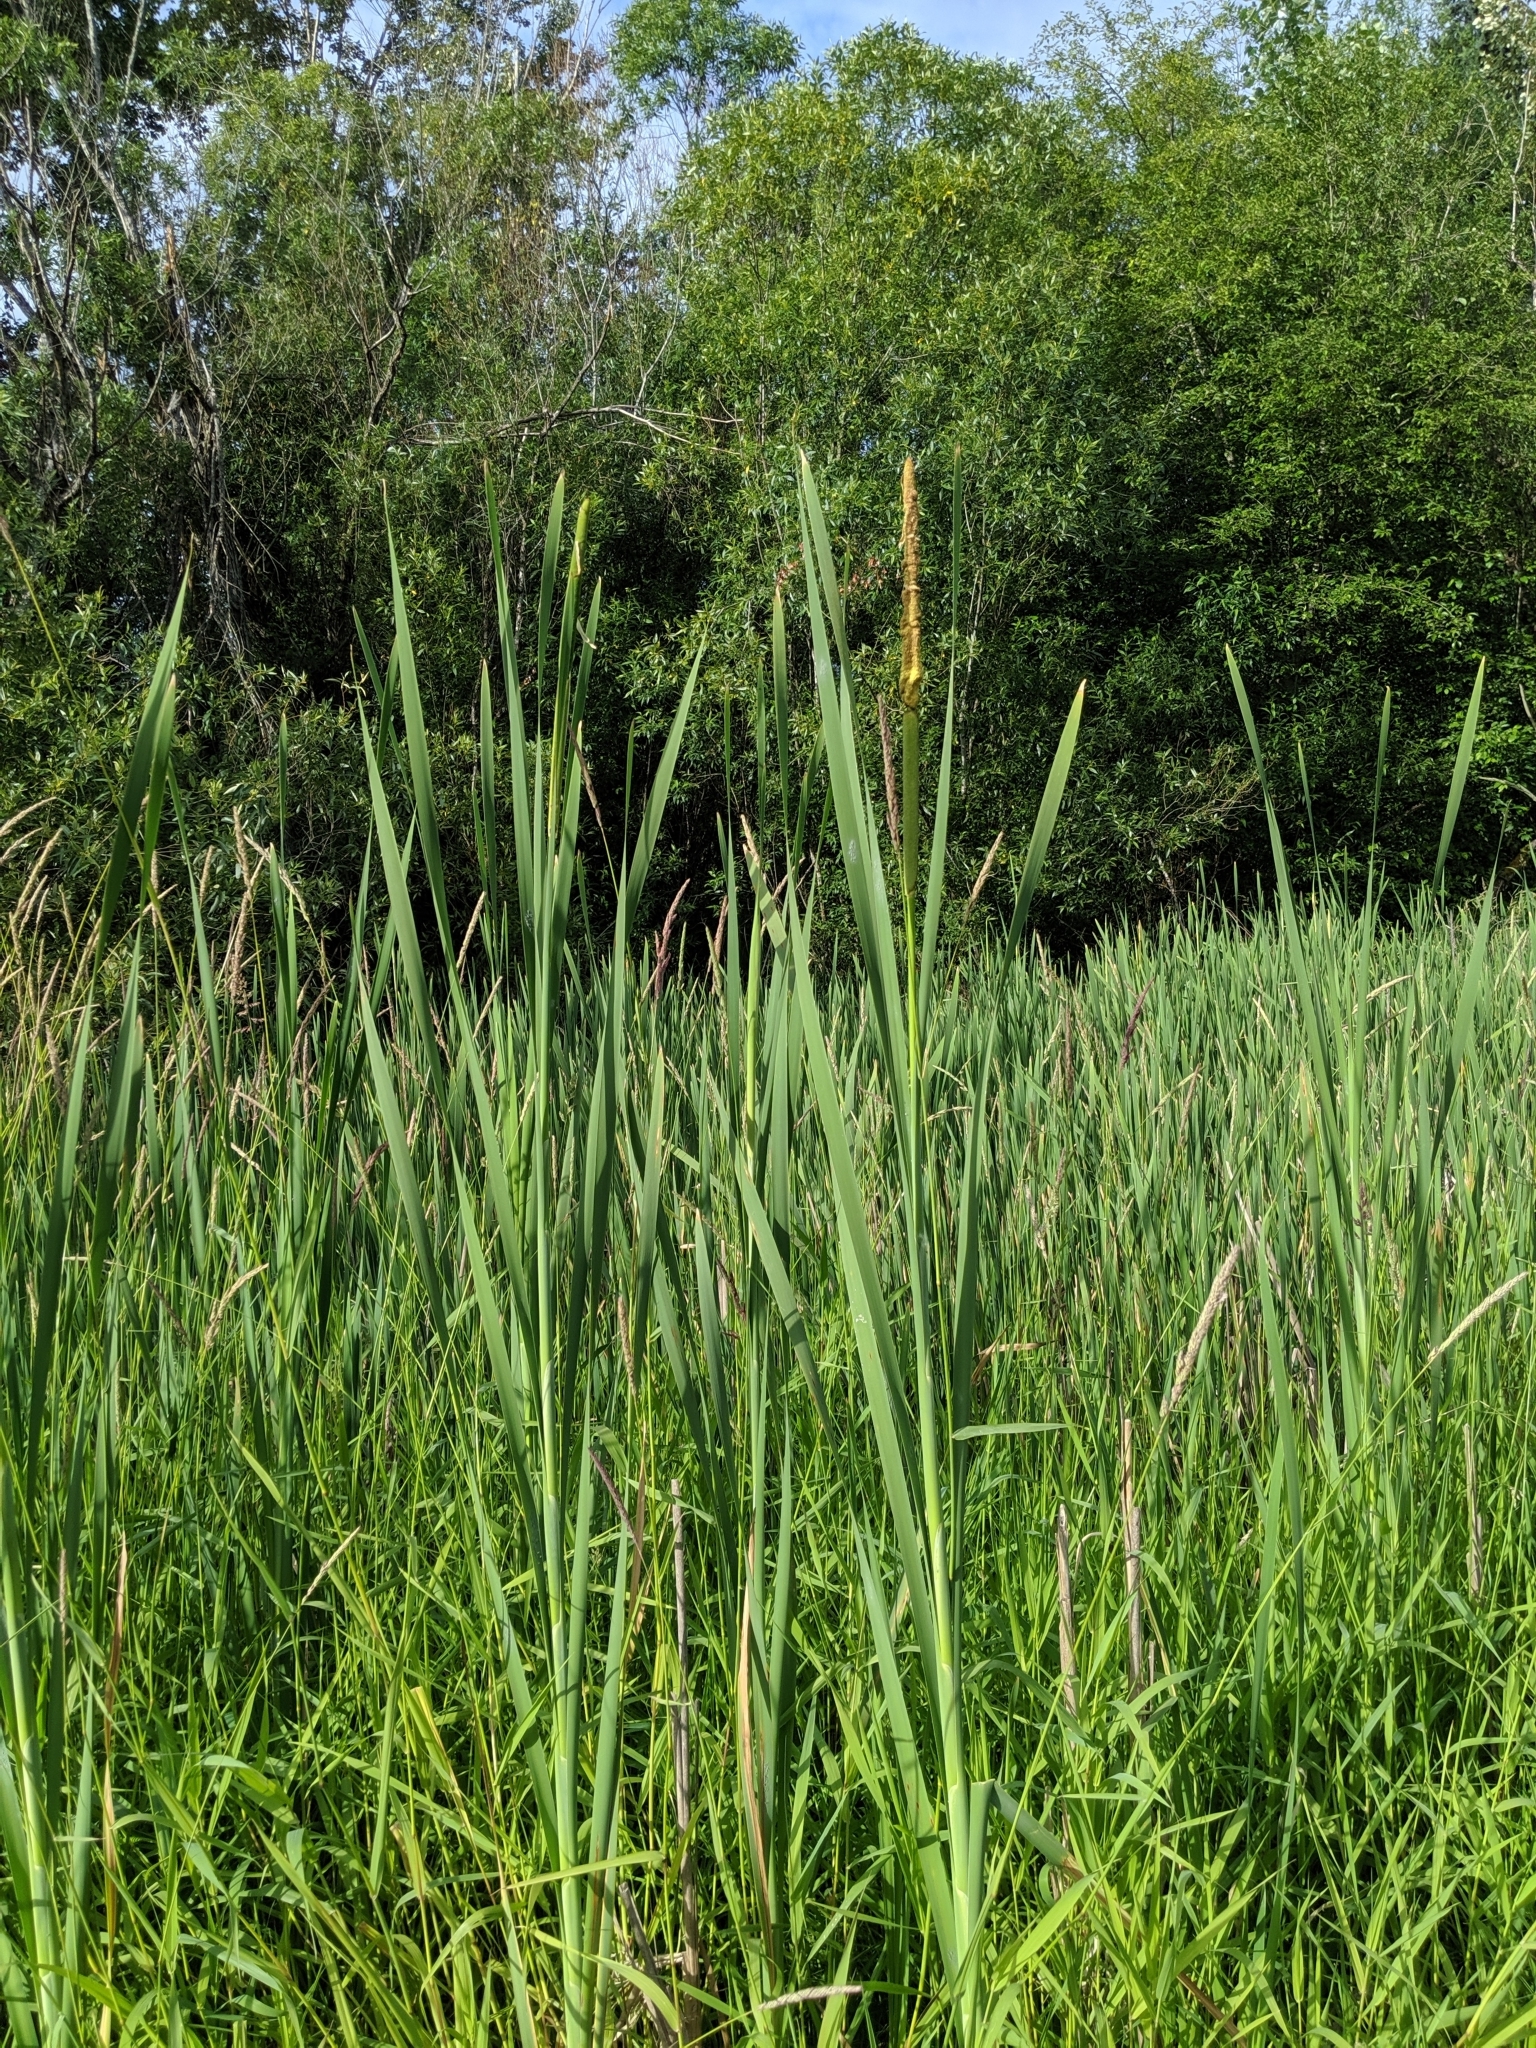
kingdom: Plantae
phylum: Tracheophyta
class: Liliopsida
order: Poales
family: Typhaceae
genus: Typha
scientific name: Typha latifolia
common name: Broadleaf cattail
